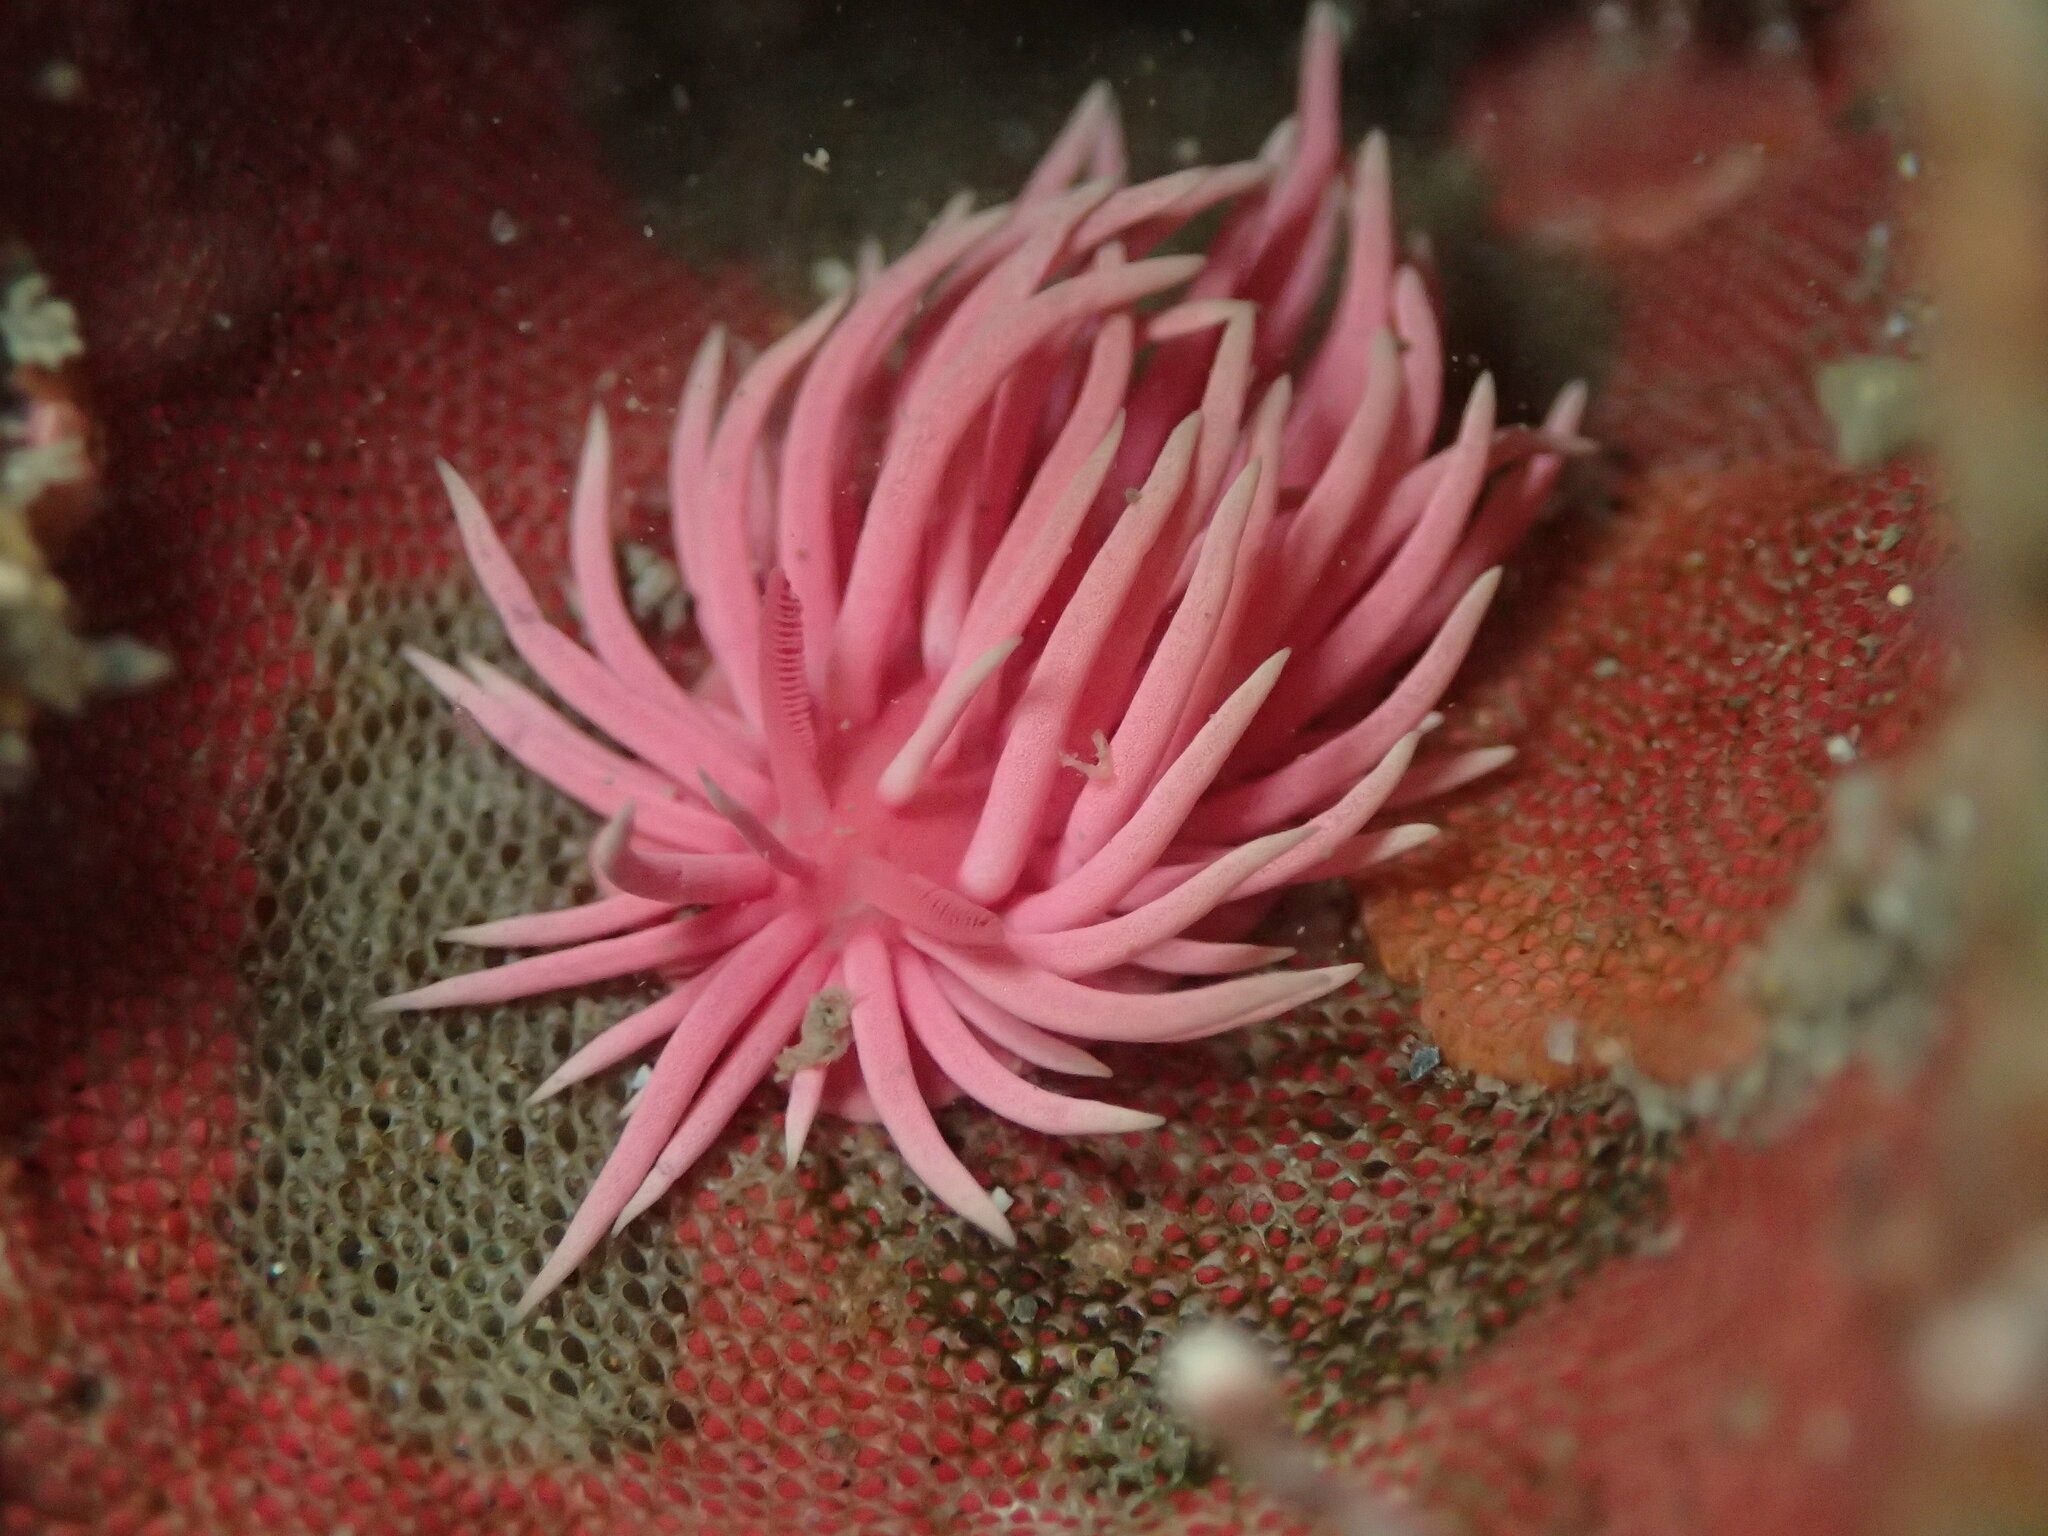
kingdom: Animalia
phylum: Mollusca
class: Gastropoda
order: Nudibranchia
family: Goniodorididae
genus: Okenia
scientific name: Okenia
